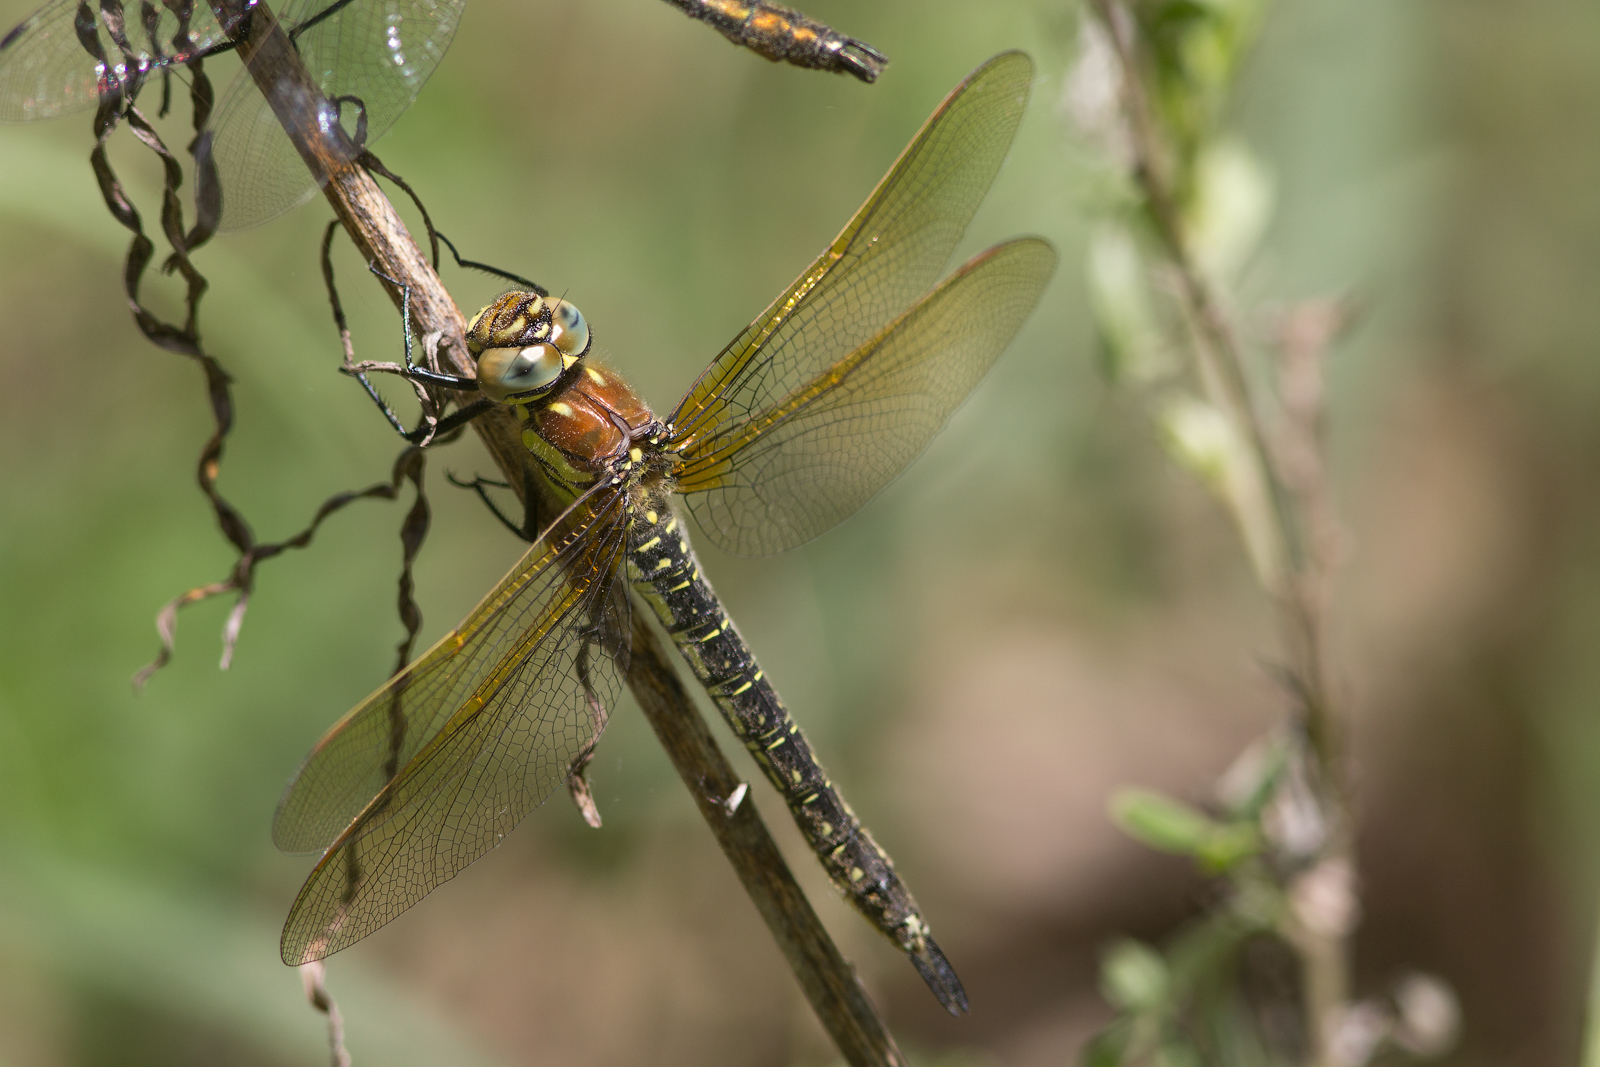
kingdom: Animalia
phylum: Arthropoda
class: Insecta
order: Odonata
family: Aeshnidae
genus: Brachytron
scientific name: Brachytron pratense
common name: Hairy hawker
